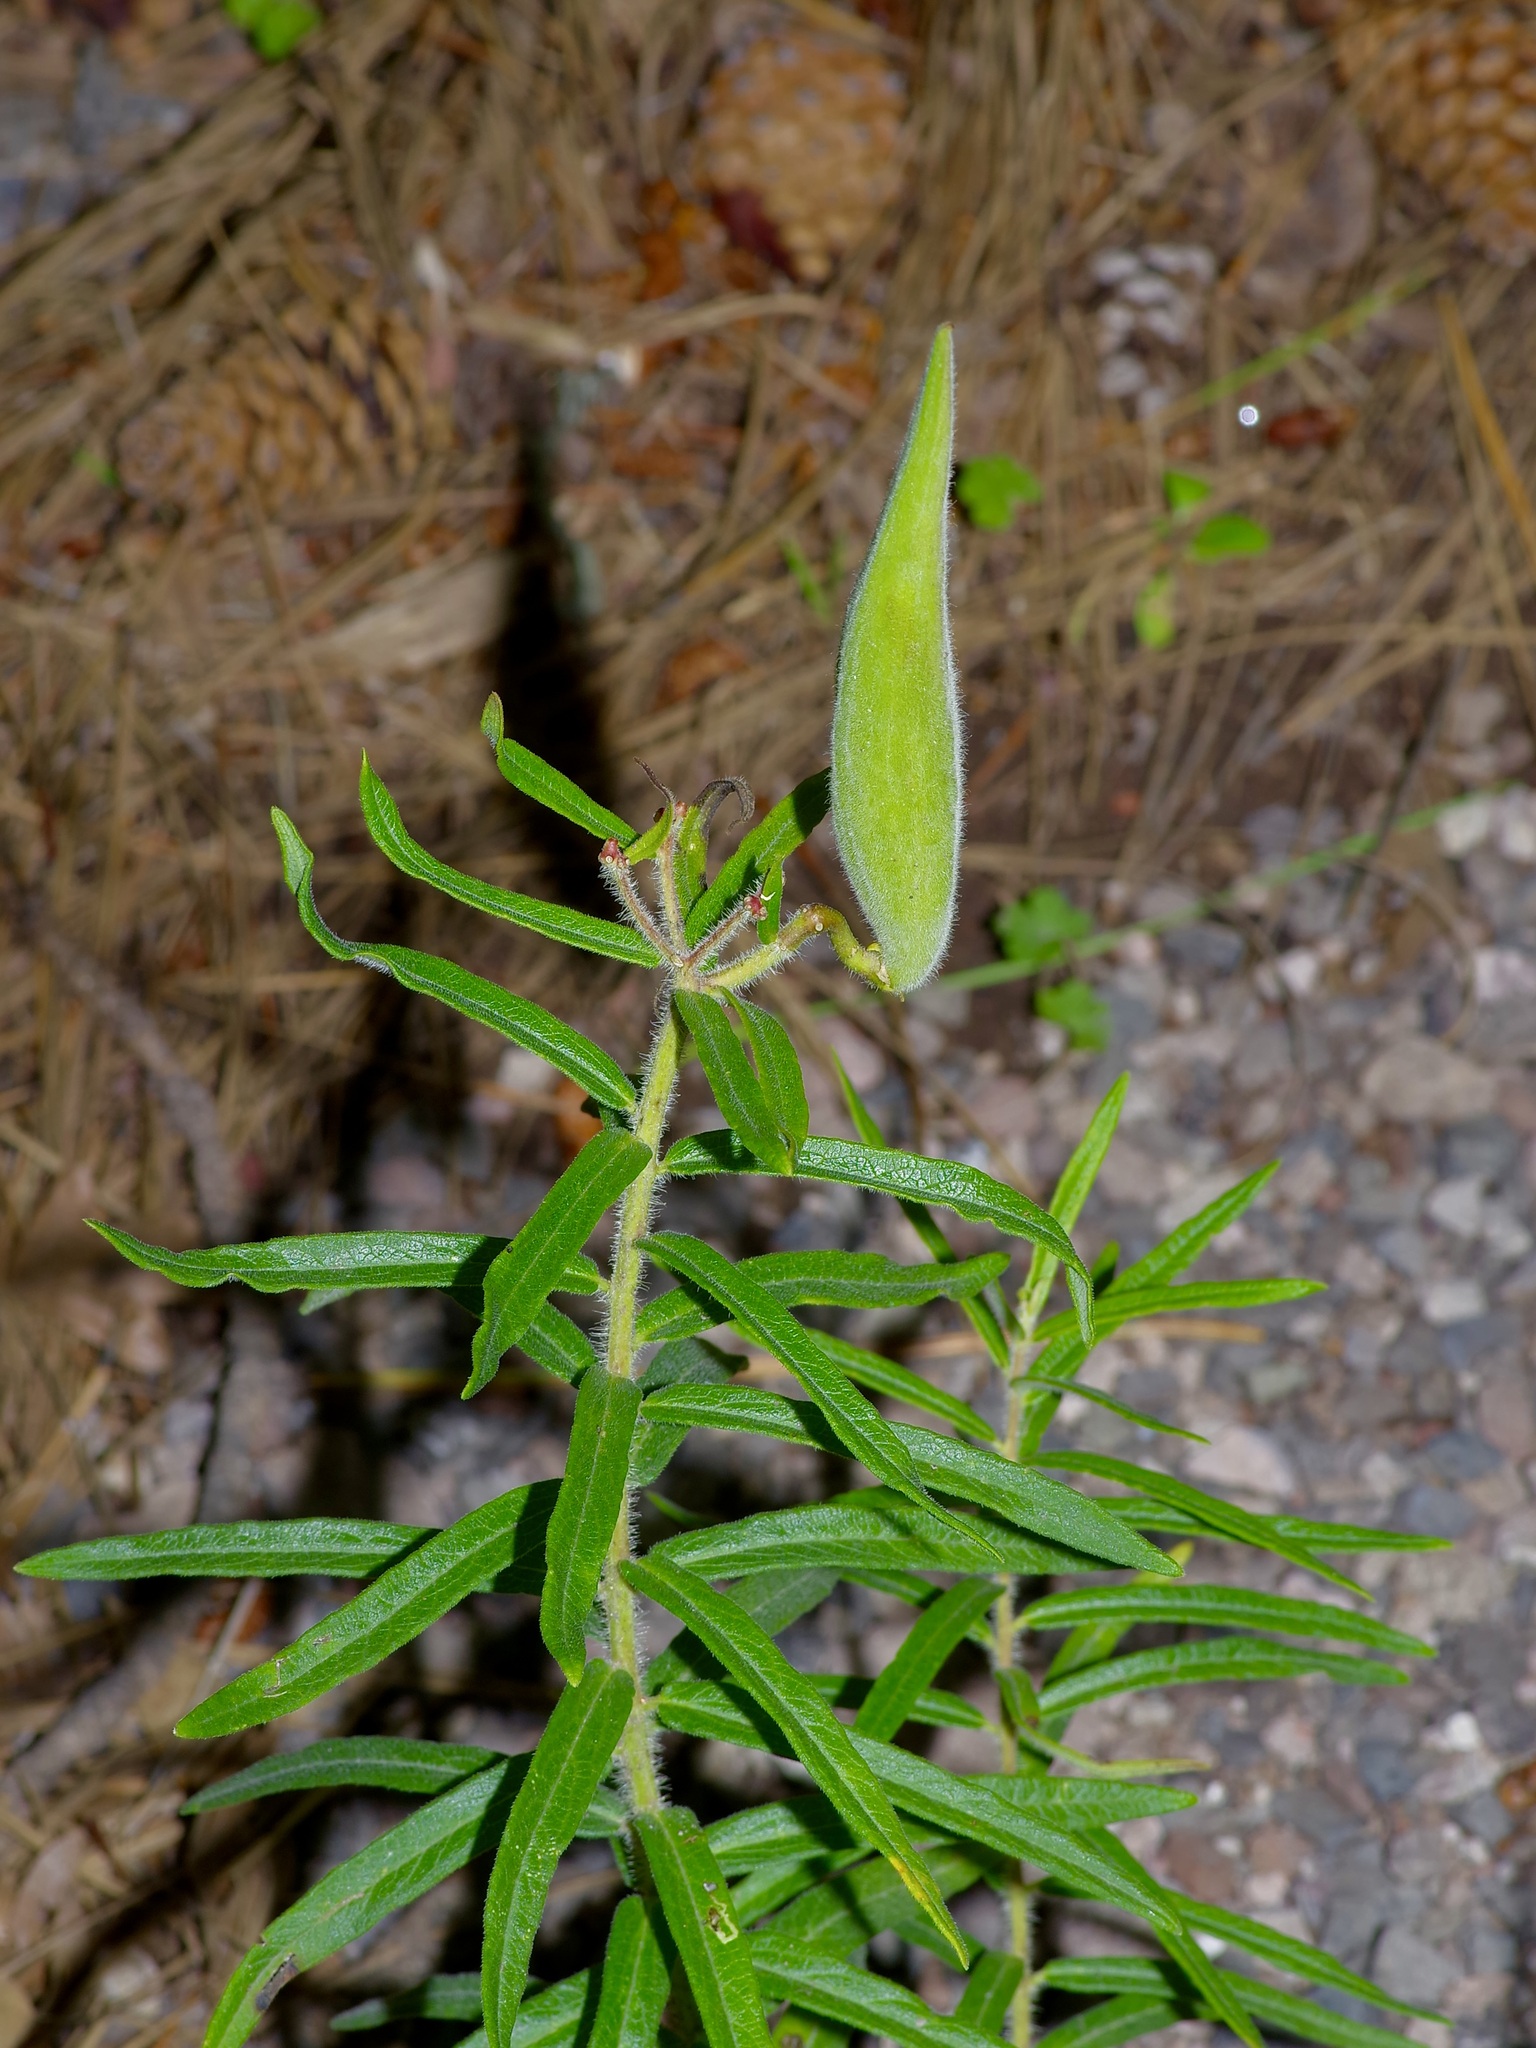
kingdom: Plantae
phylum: Tracheophyta
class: Magnoliopsida
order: Gentianales
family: Apocynaceae
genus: Asclepias
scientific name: Asclepias tuberosa
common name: Butterfly milkweed
